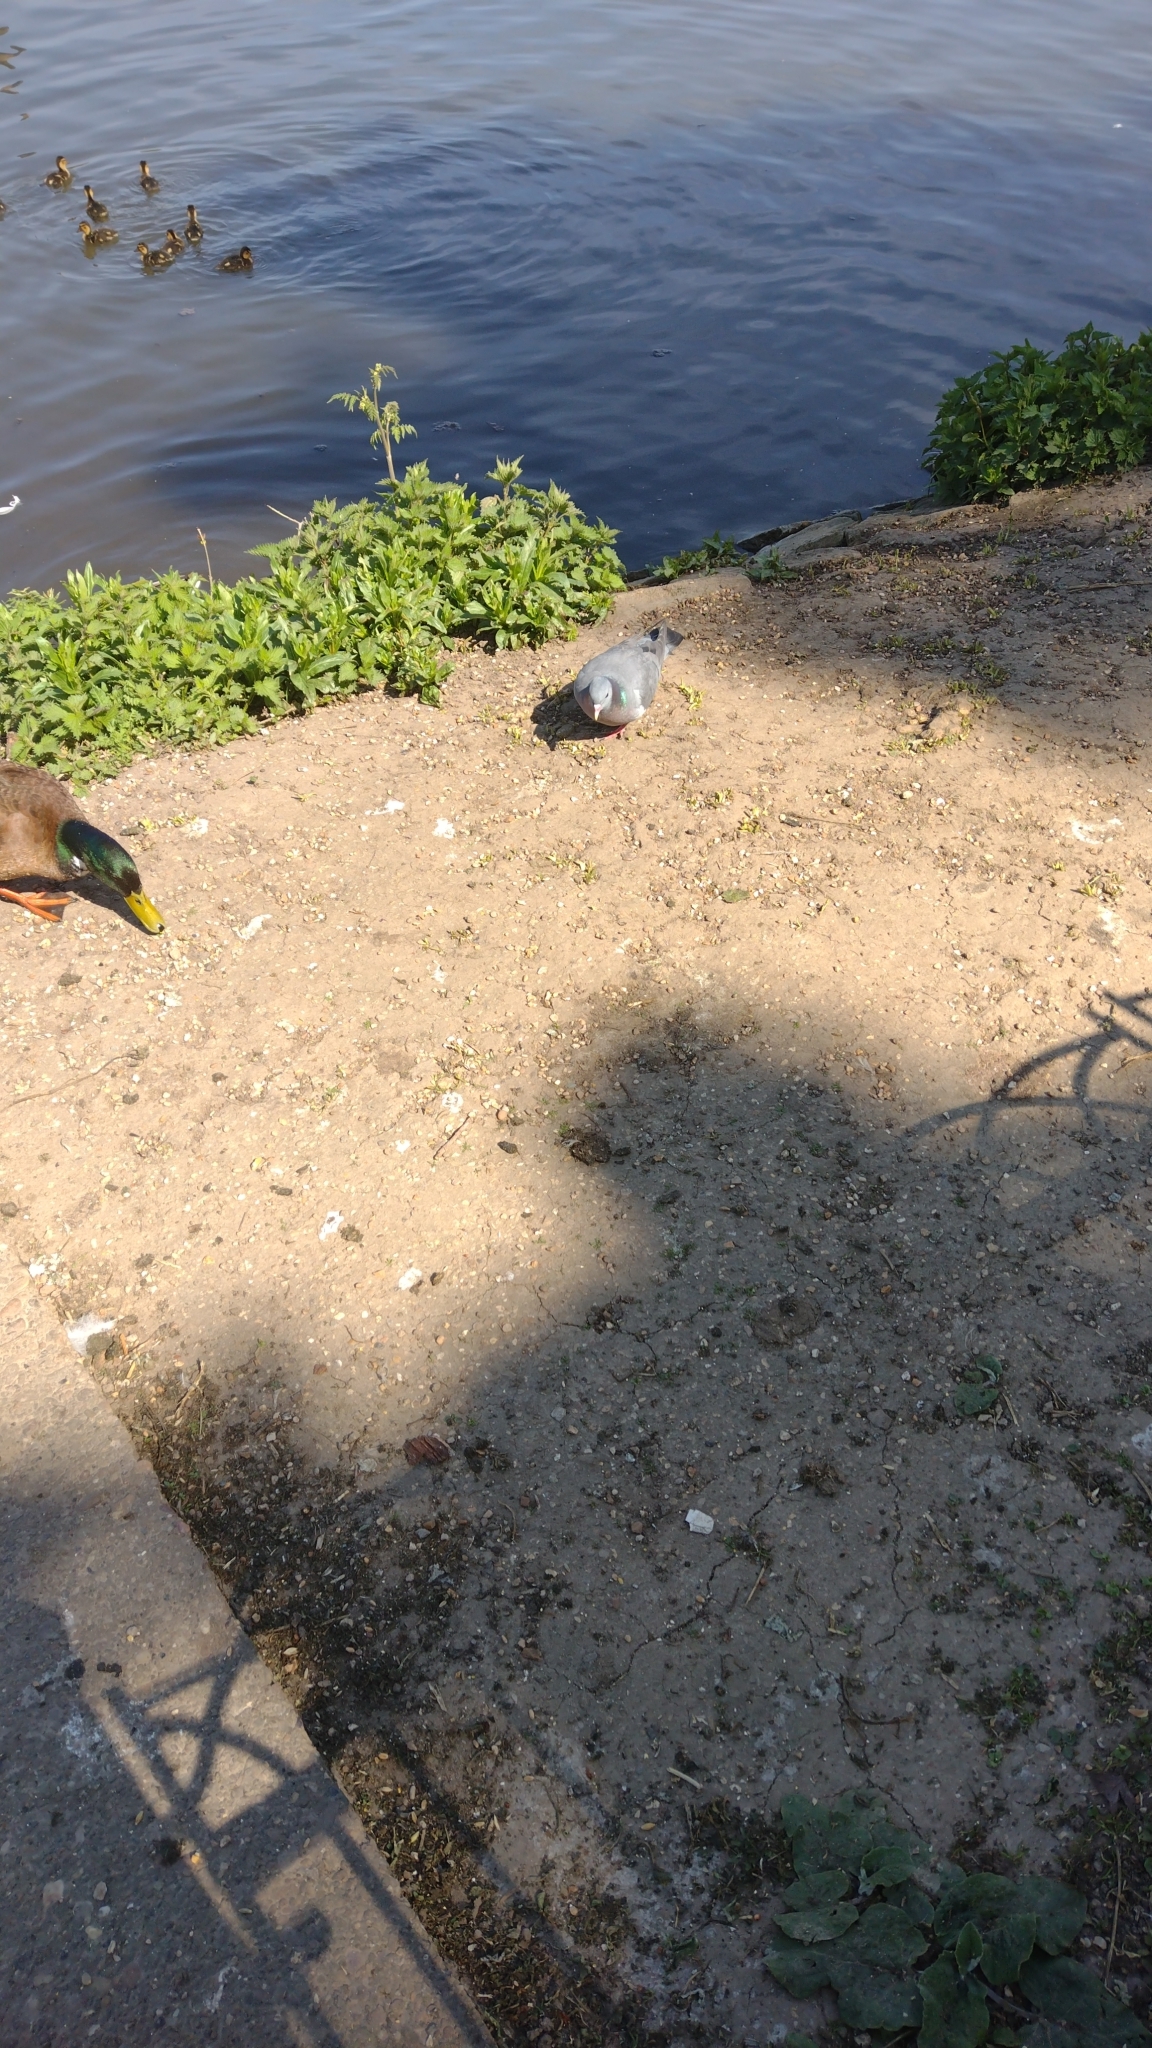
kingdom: Animalia
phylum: Chordata
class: Aves
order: Columbiformes
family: Columbidae
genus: Columba
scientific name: Columba livia
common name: Rock pigeon
